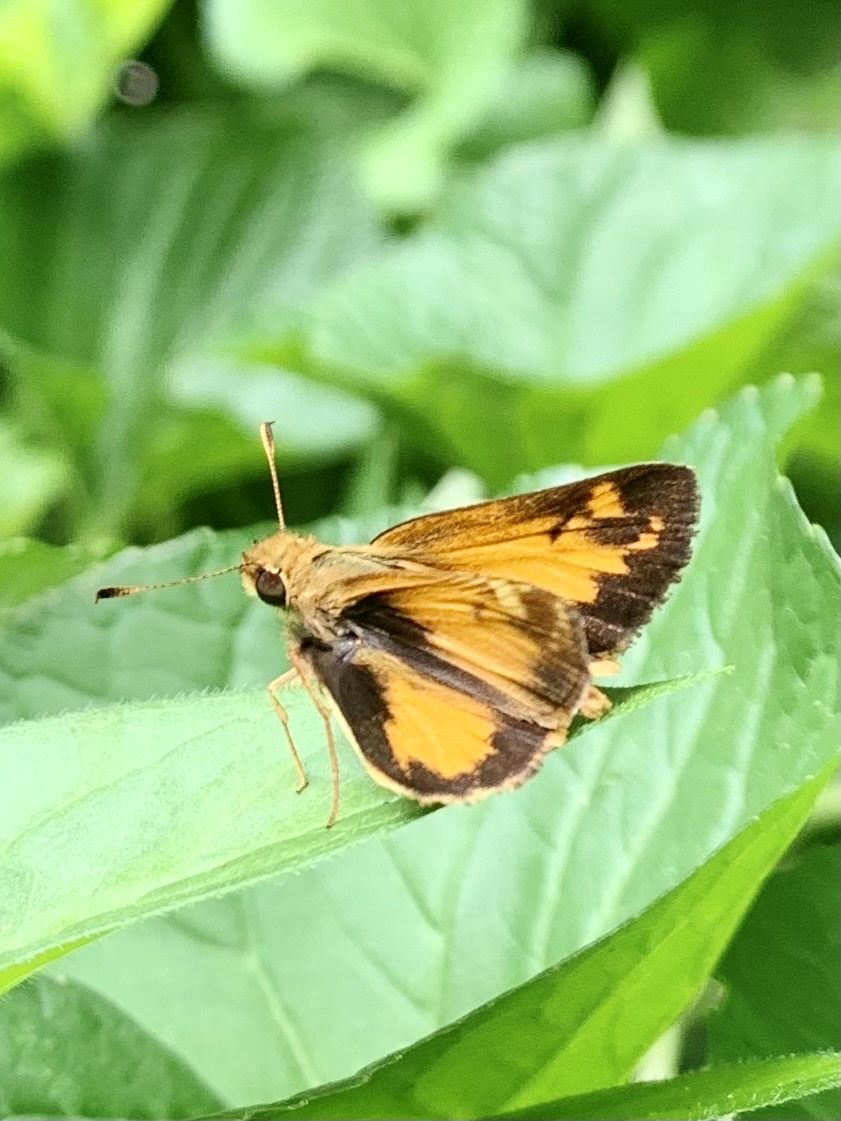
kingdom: Animalia
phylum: Arthropoda
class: Insecta
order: Lepidoptera
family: Hesperiidae
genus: Lon
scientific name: Lon zabulon
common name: Zabulon skipper
